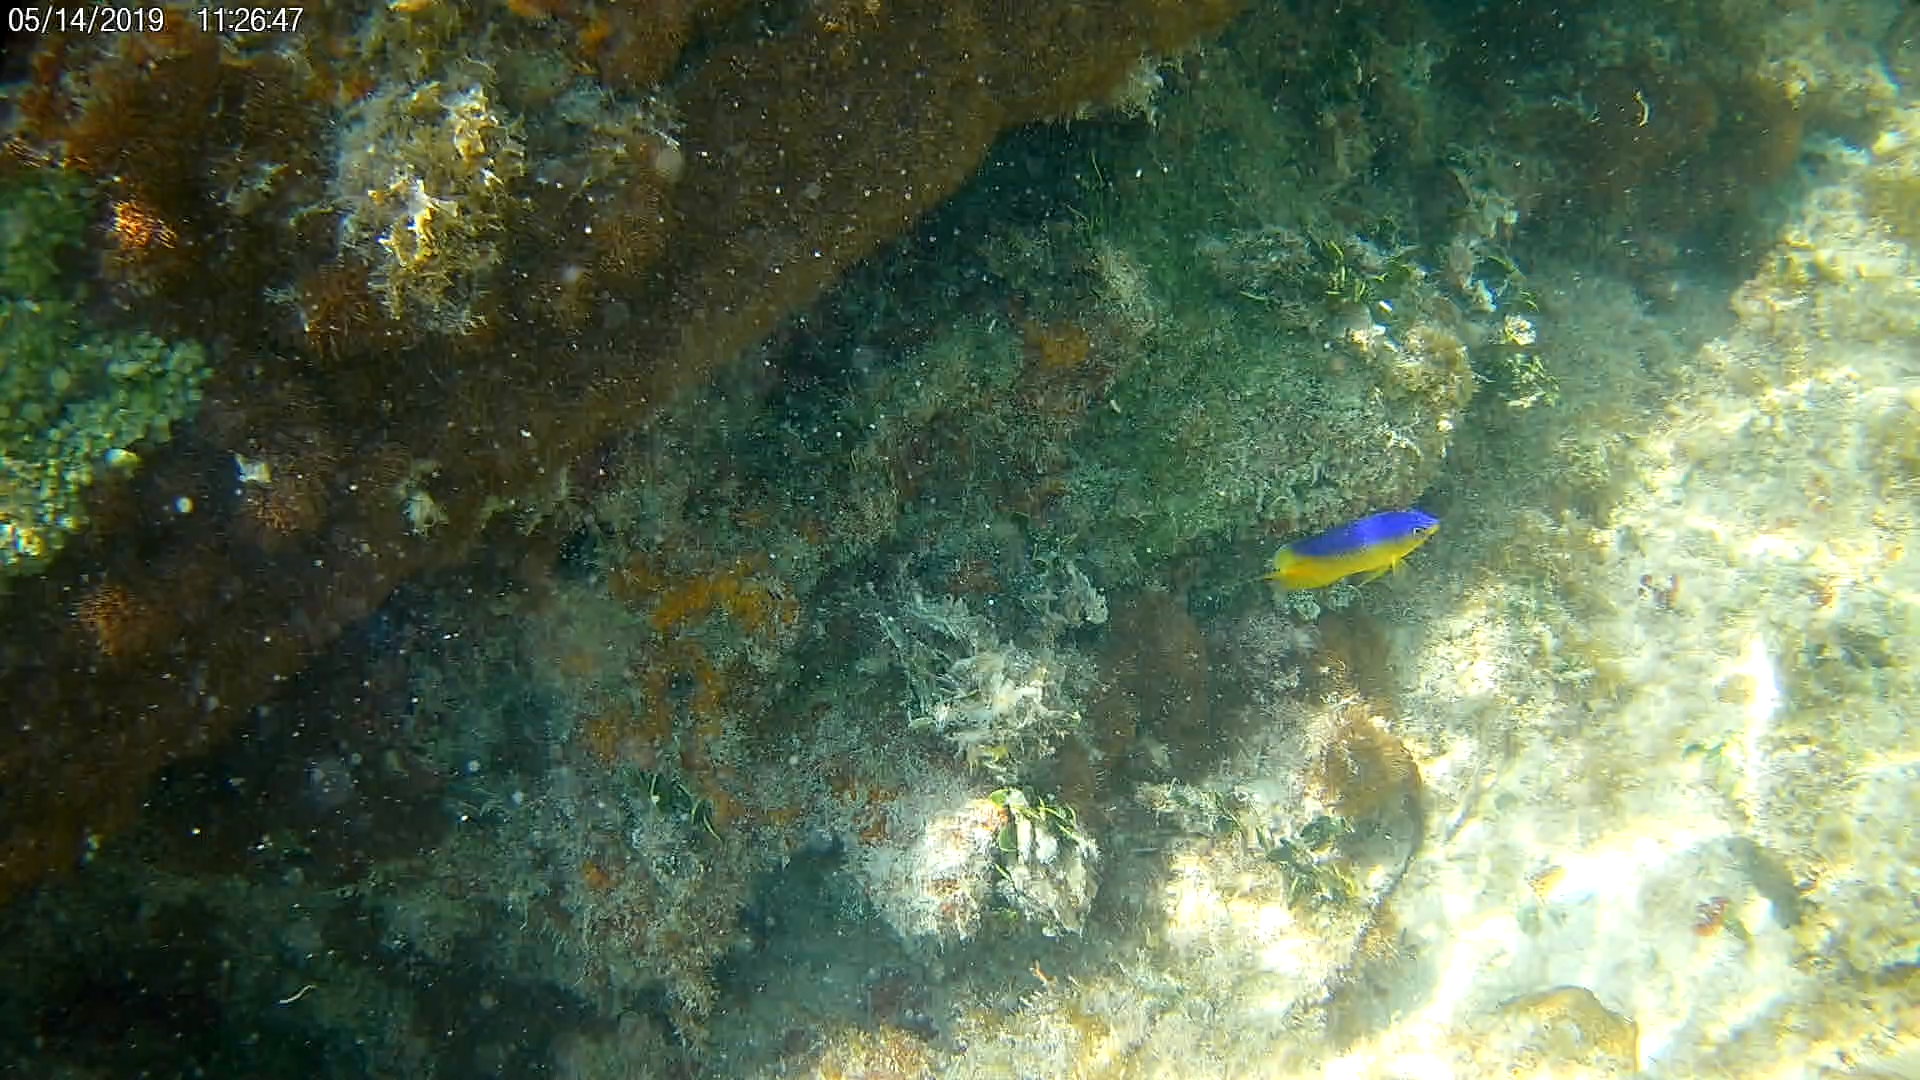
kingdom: Animalia
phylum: Chordata
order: Perciformes
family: Pomacentridae
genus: Stegastes
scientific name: Stegastes leucostictus
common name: Beaugregory
